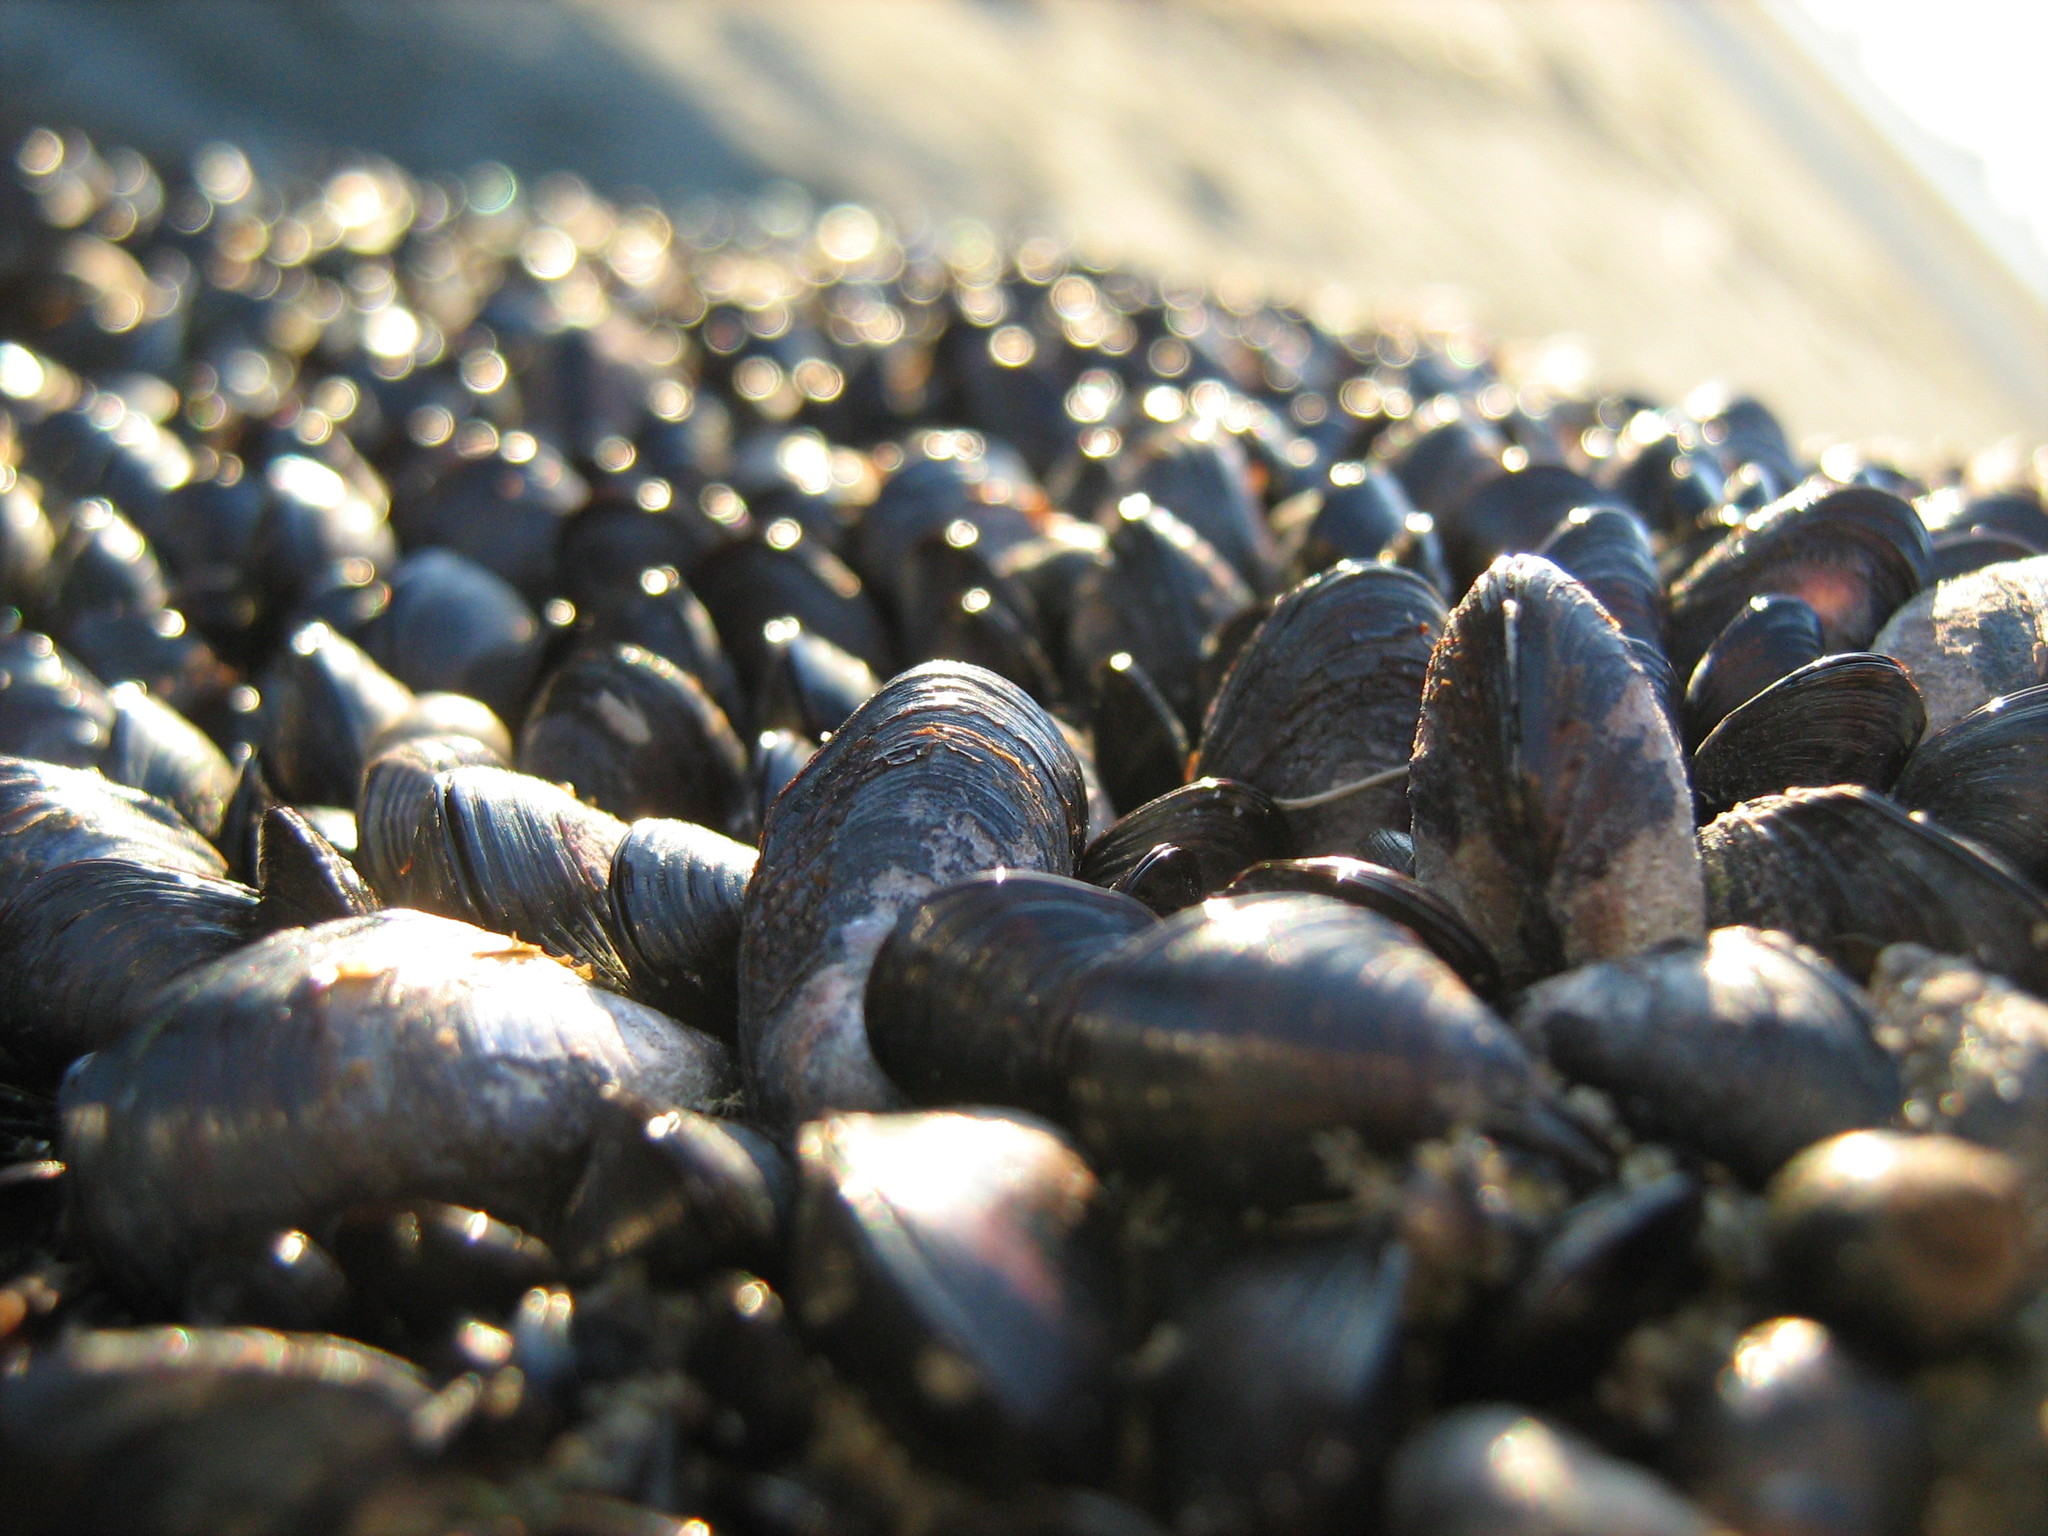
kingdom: Animalia
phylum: Mollusca
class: Bivalvia
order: Mytilida
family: Mytilidae
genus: Xenostrobus
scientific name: Xenostrobus neozelanicus
